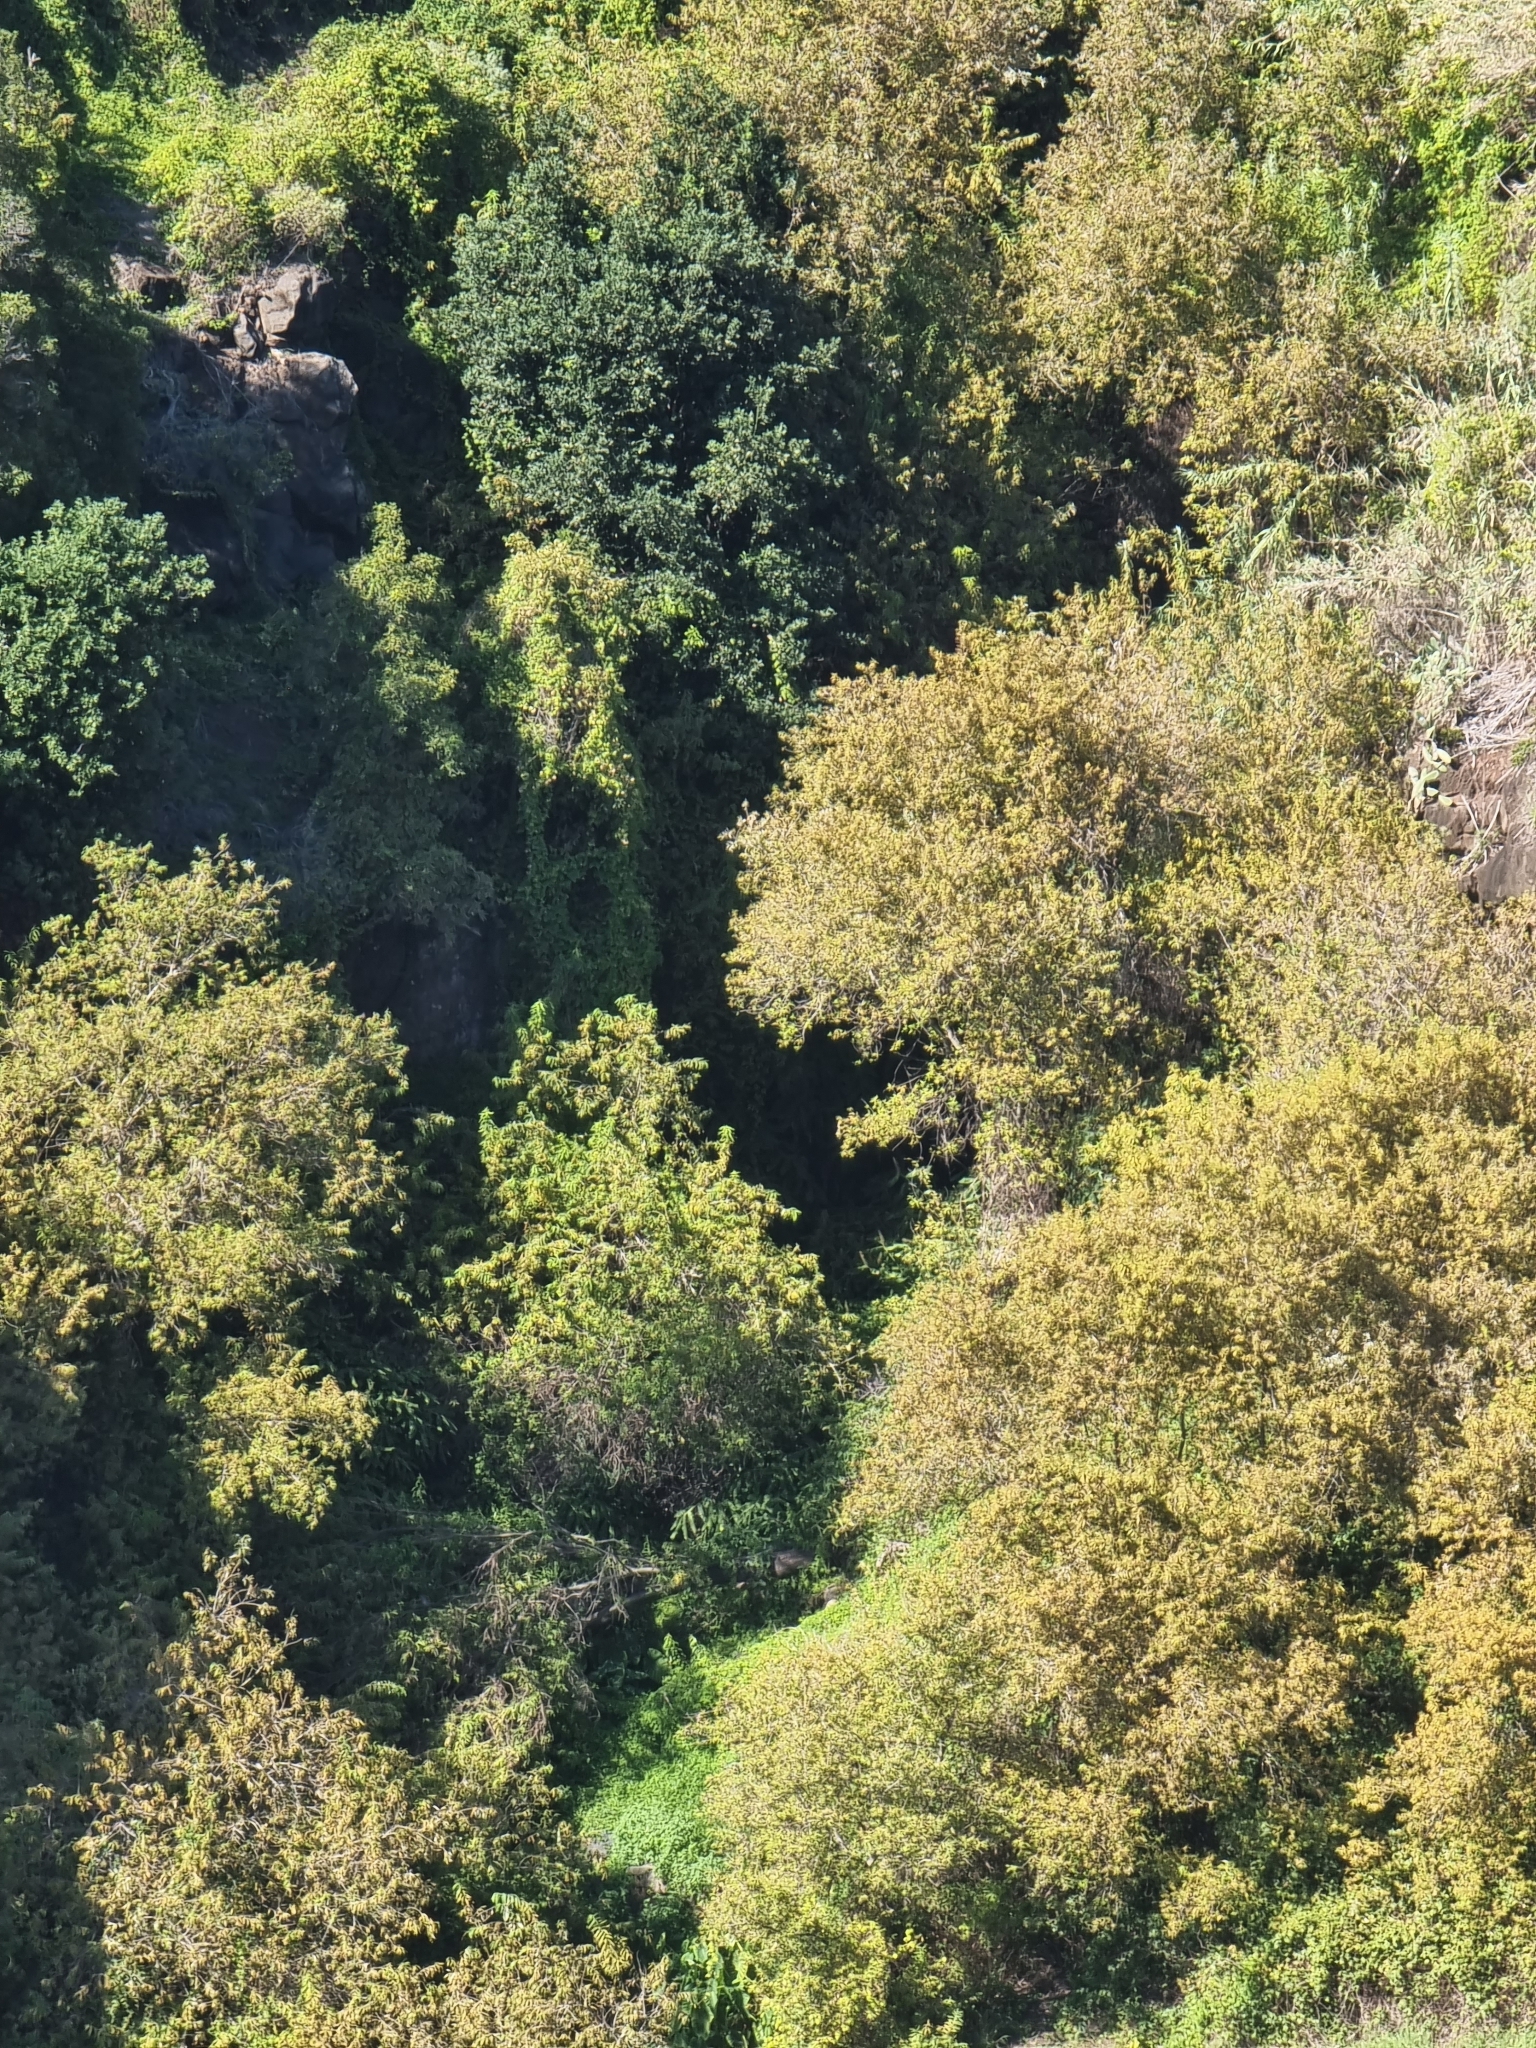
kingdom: Plantae
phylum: Tracheophyta
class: Magnoliopsida
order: Malpighiales
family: Salicaceae
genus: Salix
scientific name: Salix canariensis
